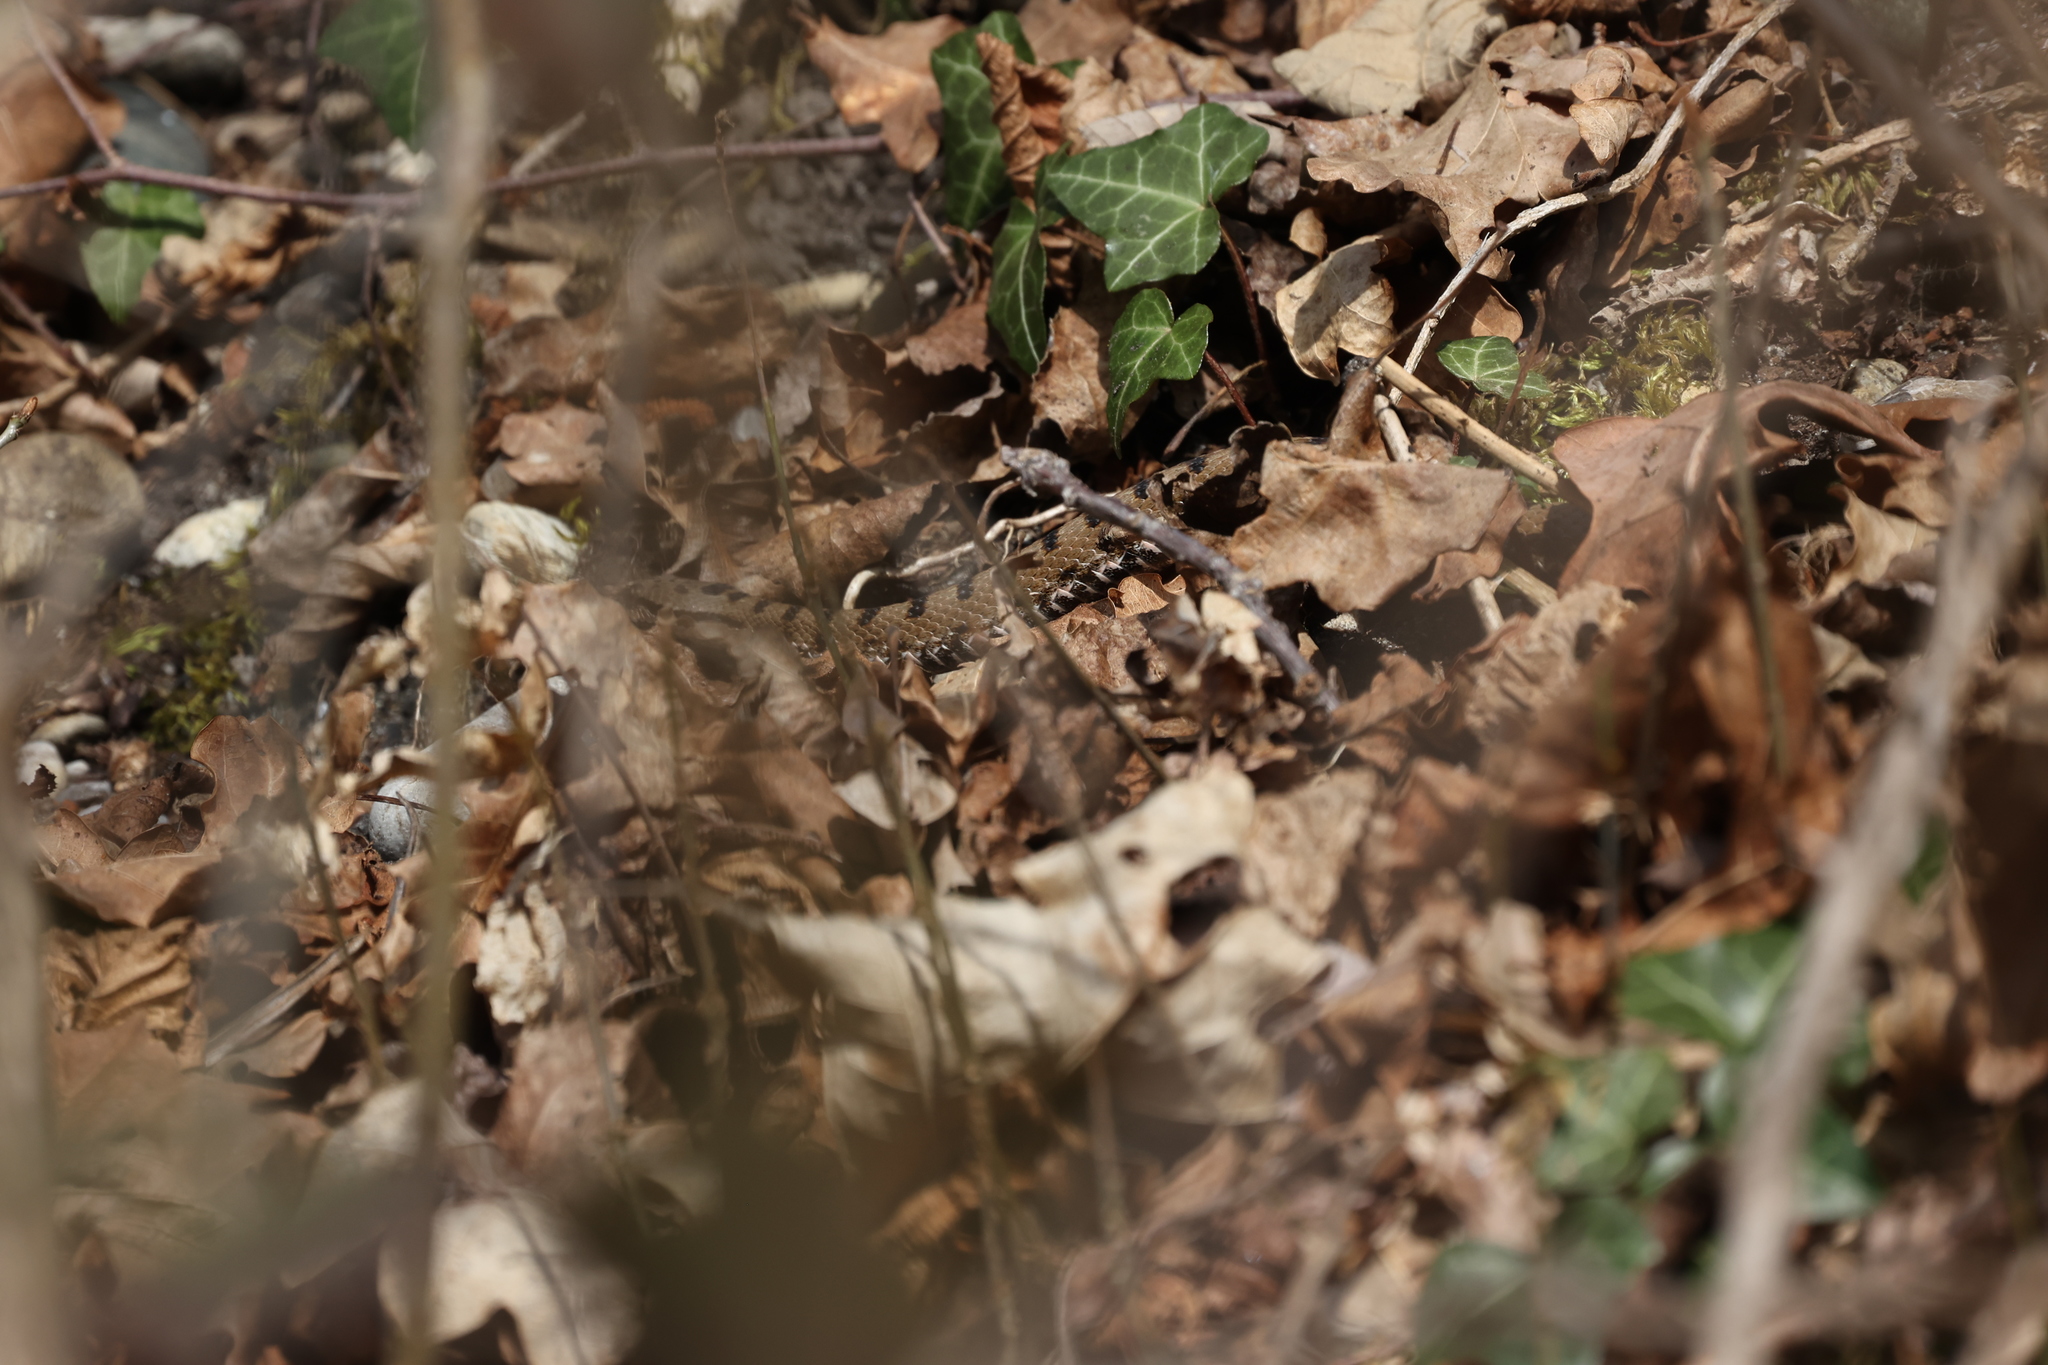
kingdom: Animalia
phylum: Chordata
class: Squamata
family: Viperidae
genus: Vipera
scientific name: Vipera aspis
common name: Asp viper
